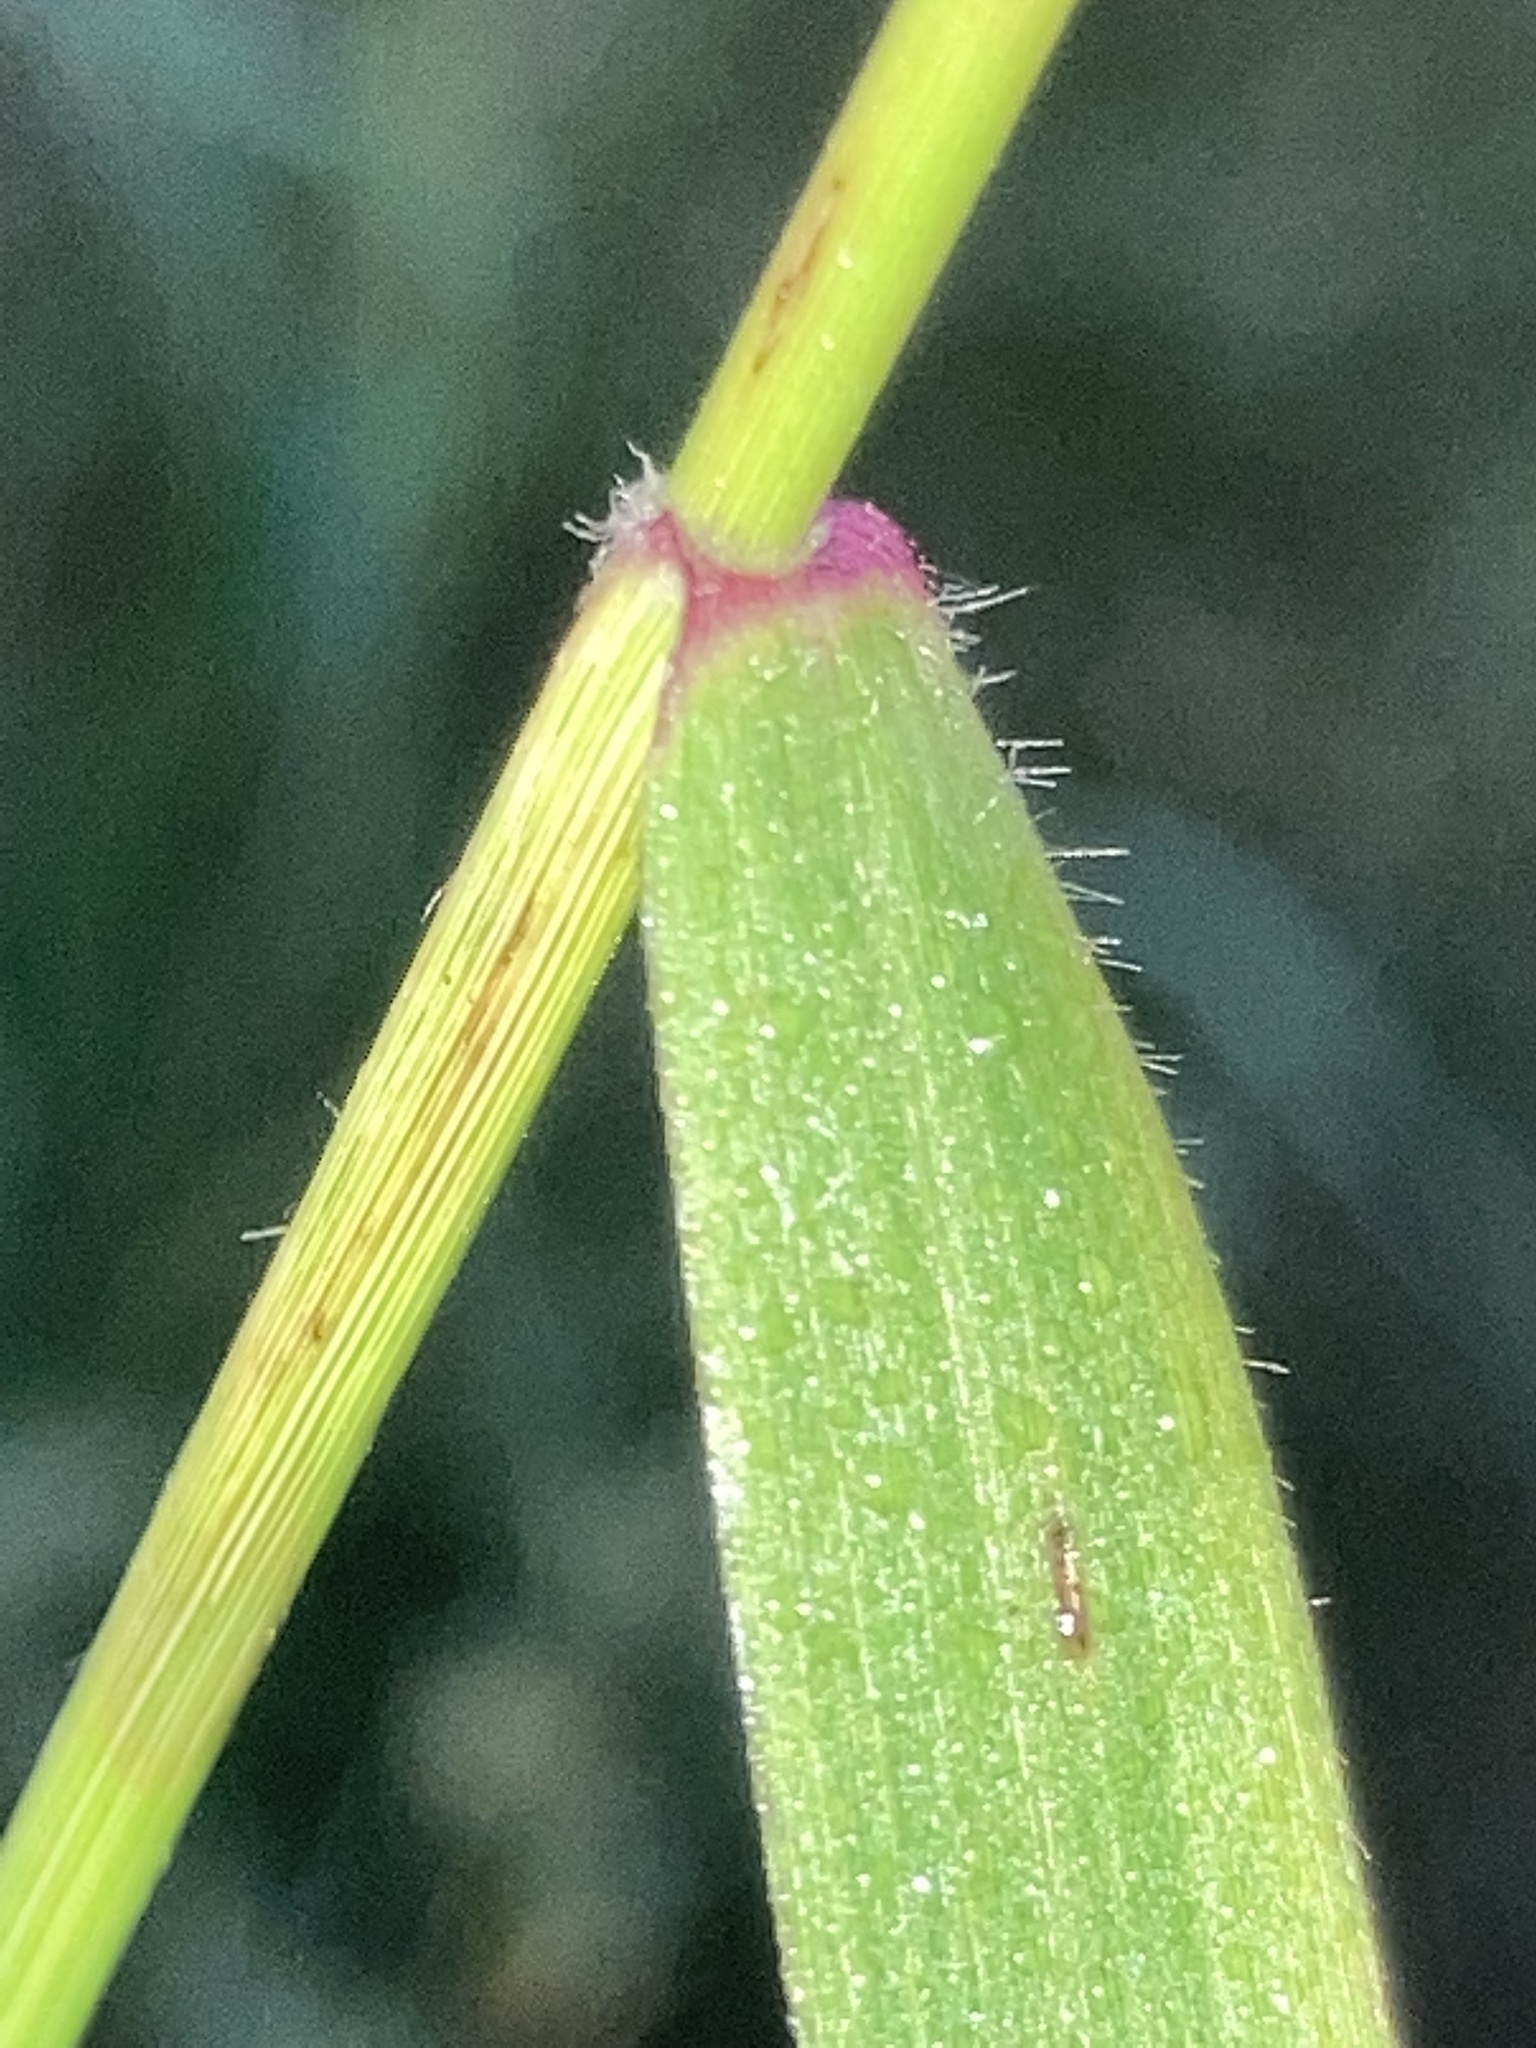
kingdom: Plantae
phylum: Tracheophyta
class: Liliopsida
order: Poales
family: Poaceae
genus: Tridens
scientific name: Tridens flavus
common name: Purpletop
